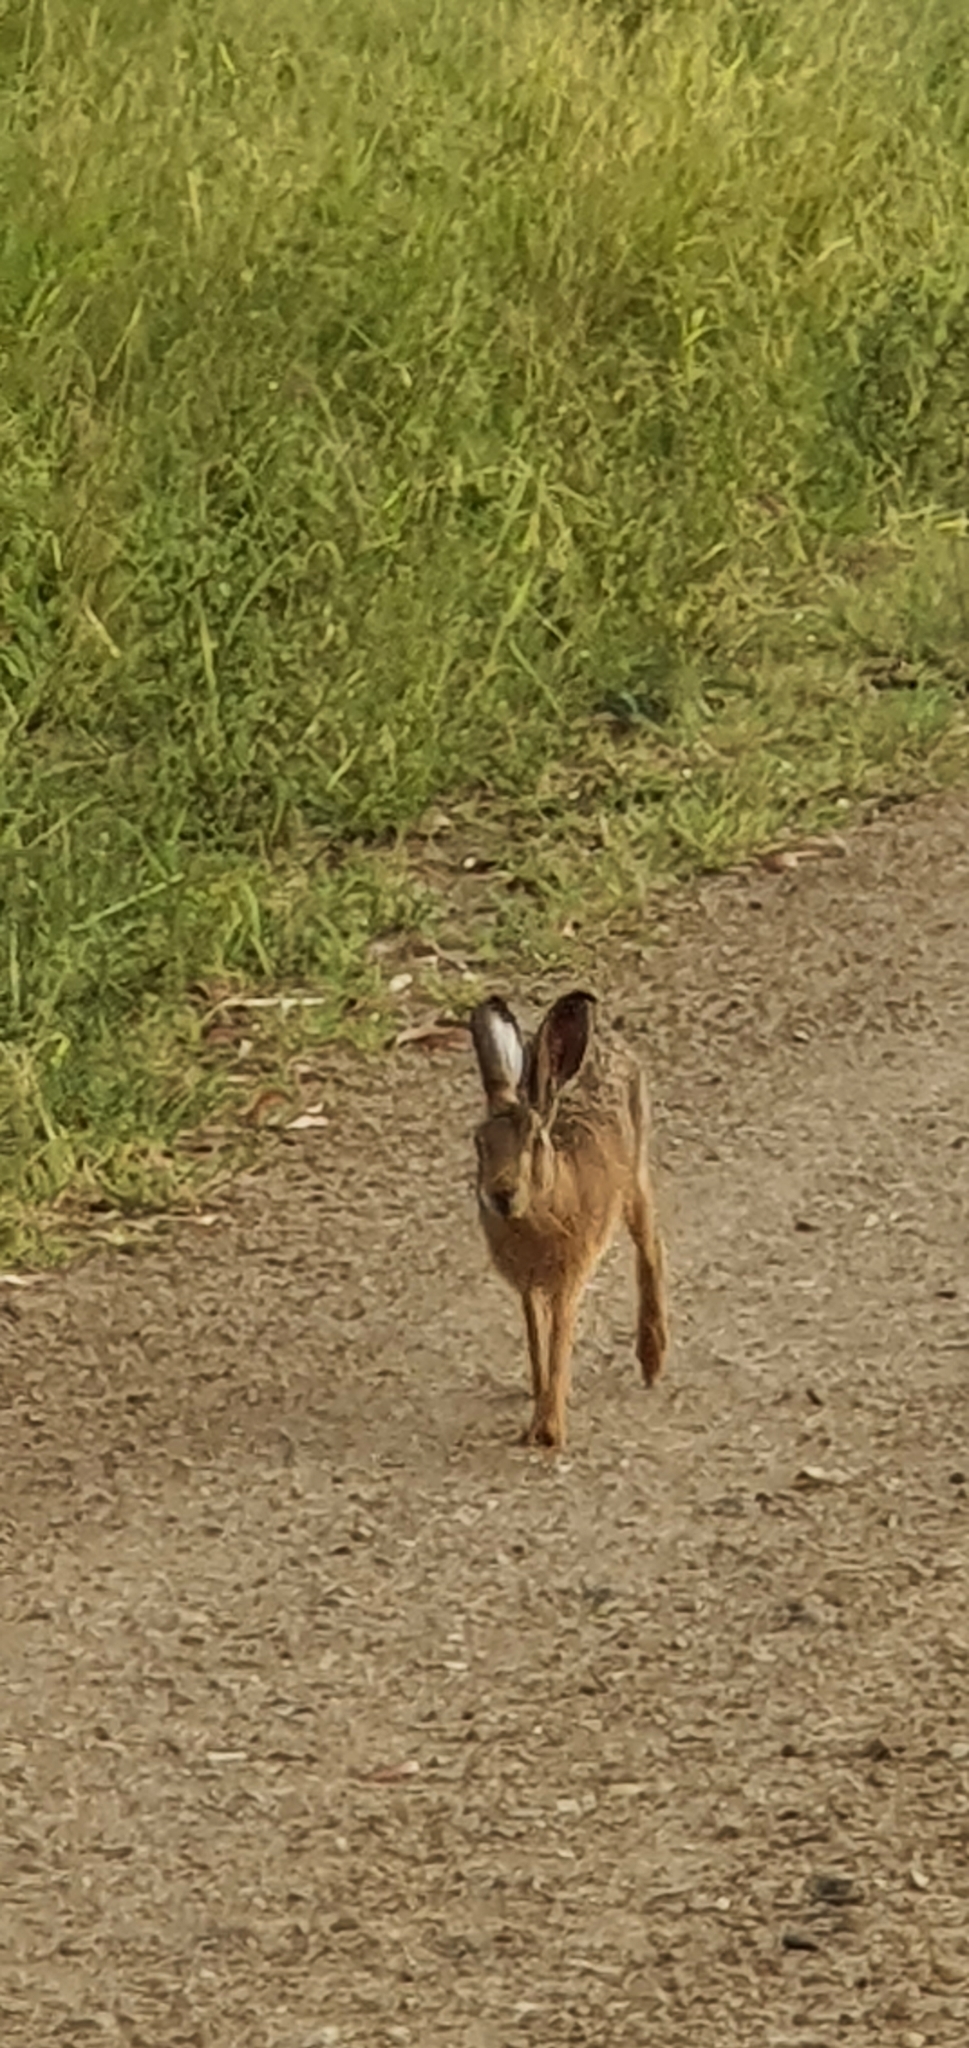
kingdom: Animalia
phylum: Chordata
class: Mammalia
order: Lagomorpha
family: Leporidae
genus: Lepus
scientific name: Lepus europaeus
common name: European hare
